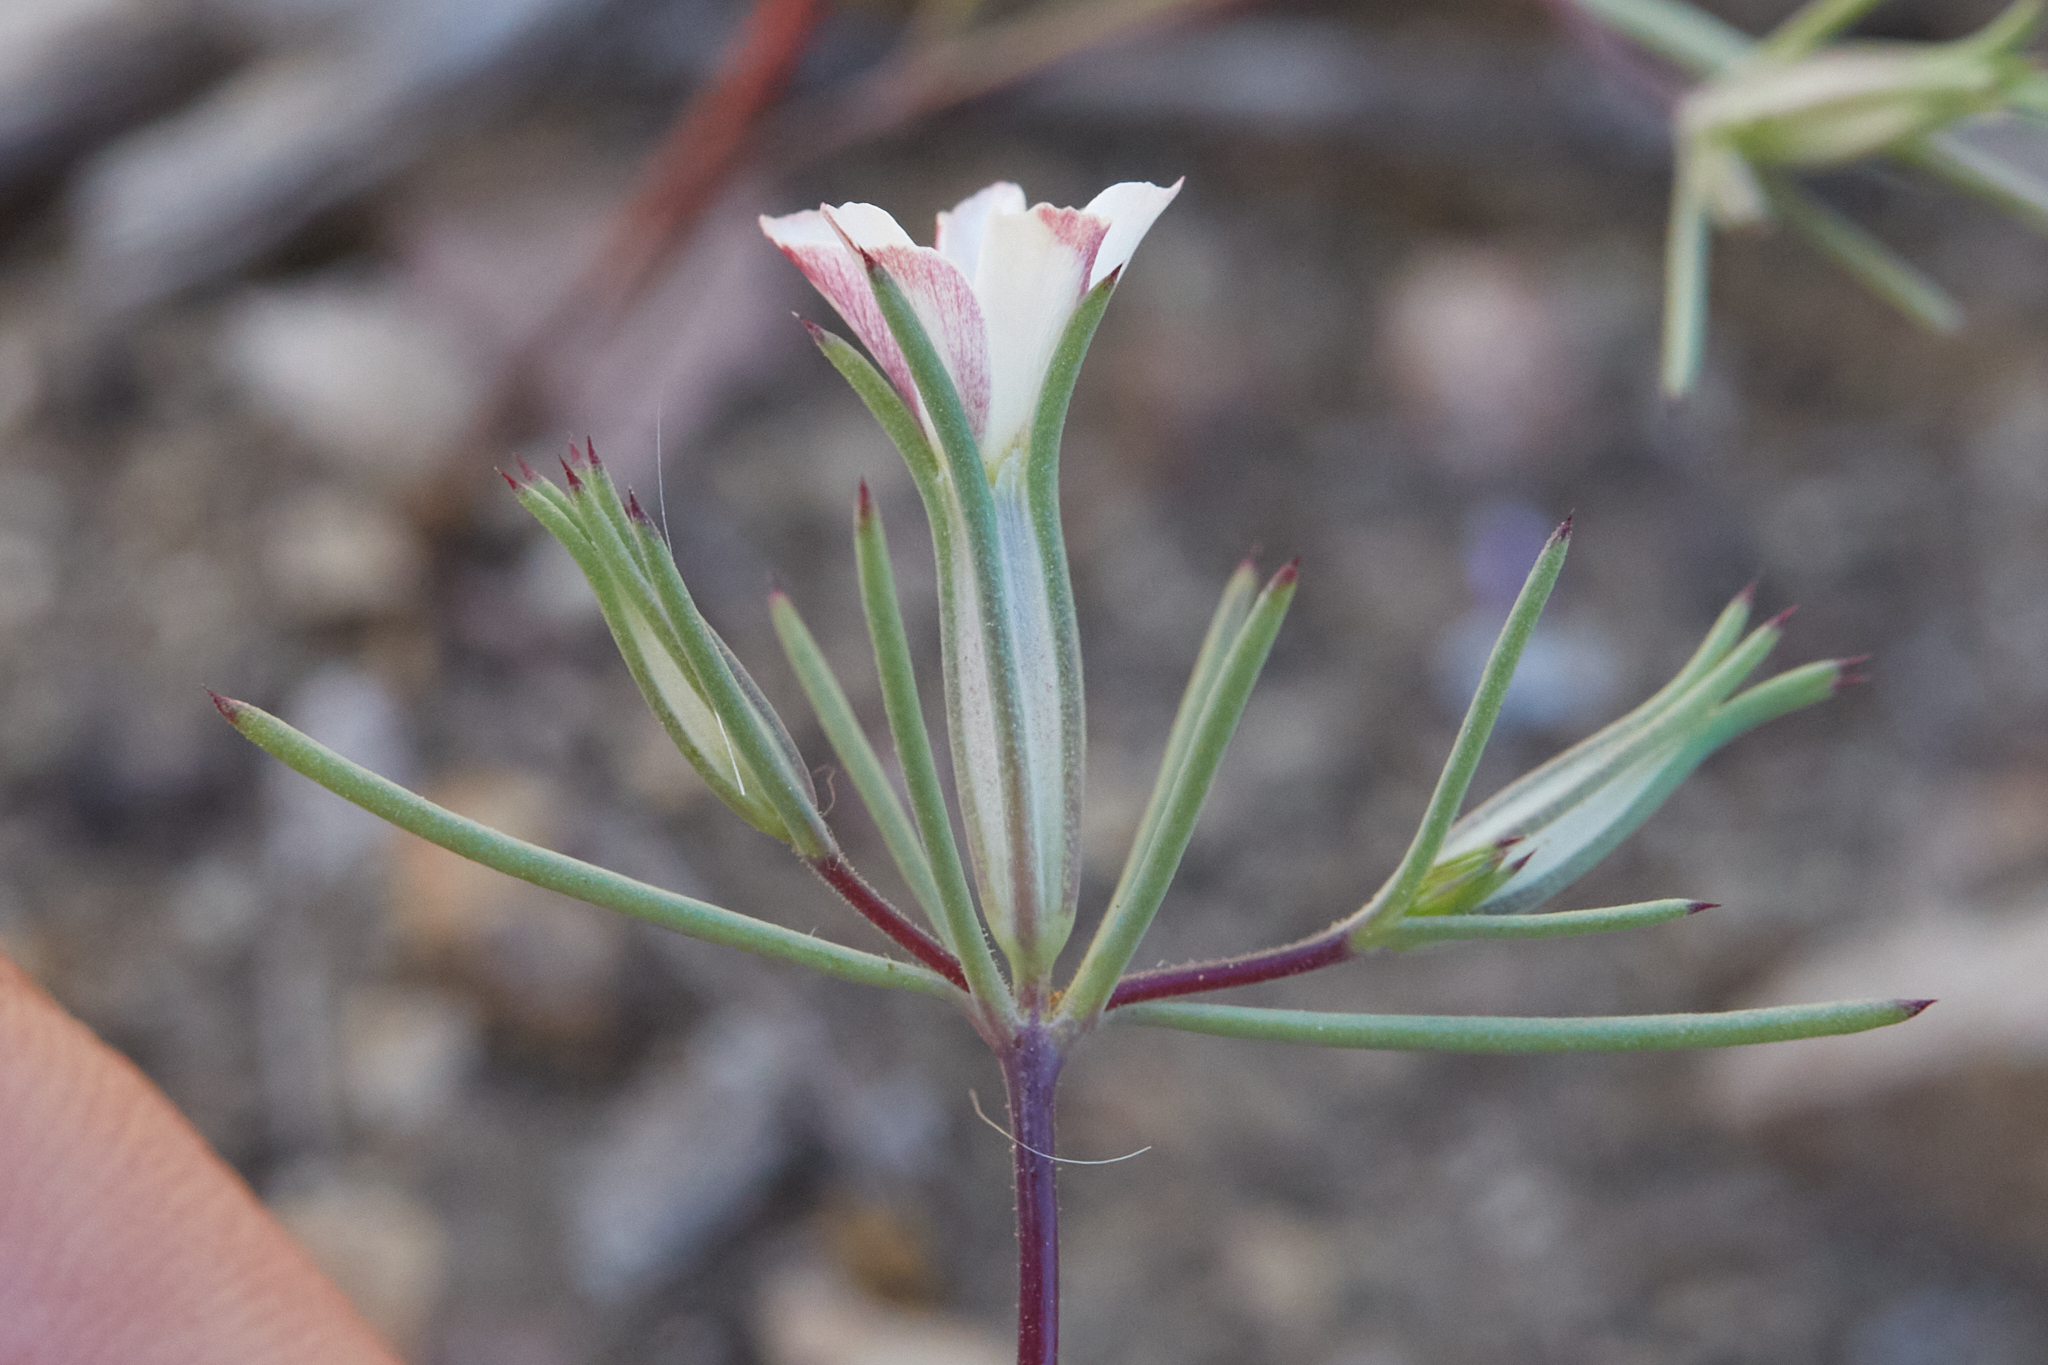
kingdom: Plantae
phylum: Tracheophyta
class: Magnoliopsida
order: Ericales
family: Polemoniaceae
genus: Linanthus
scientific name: Linanthus bigelovii
